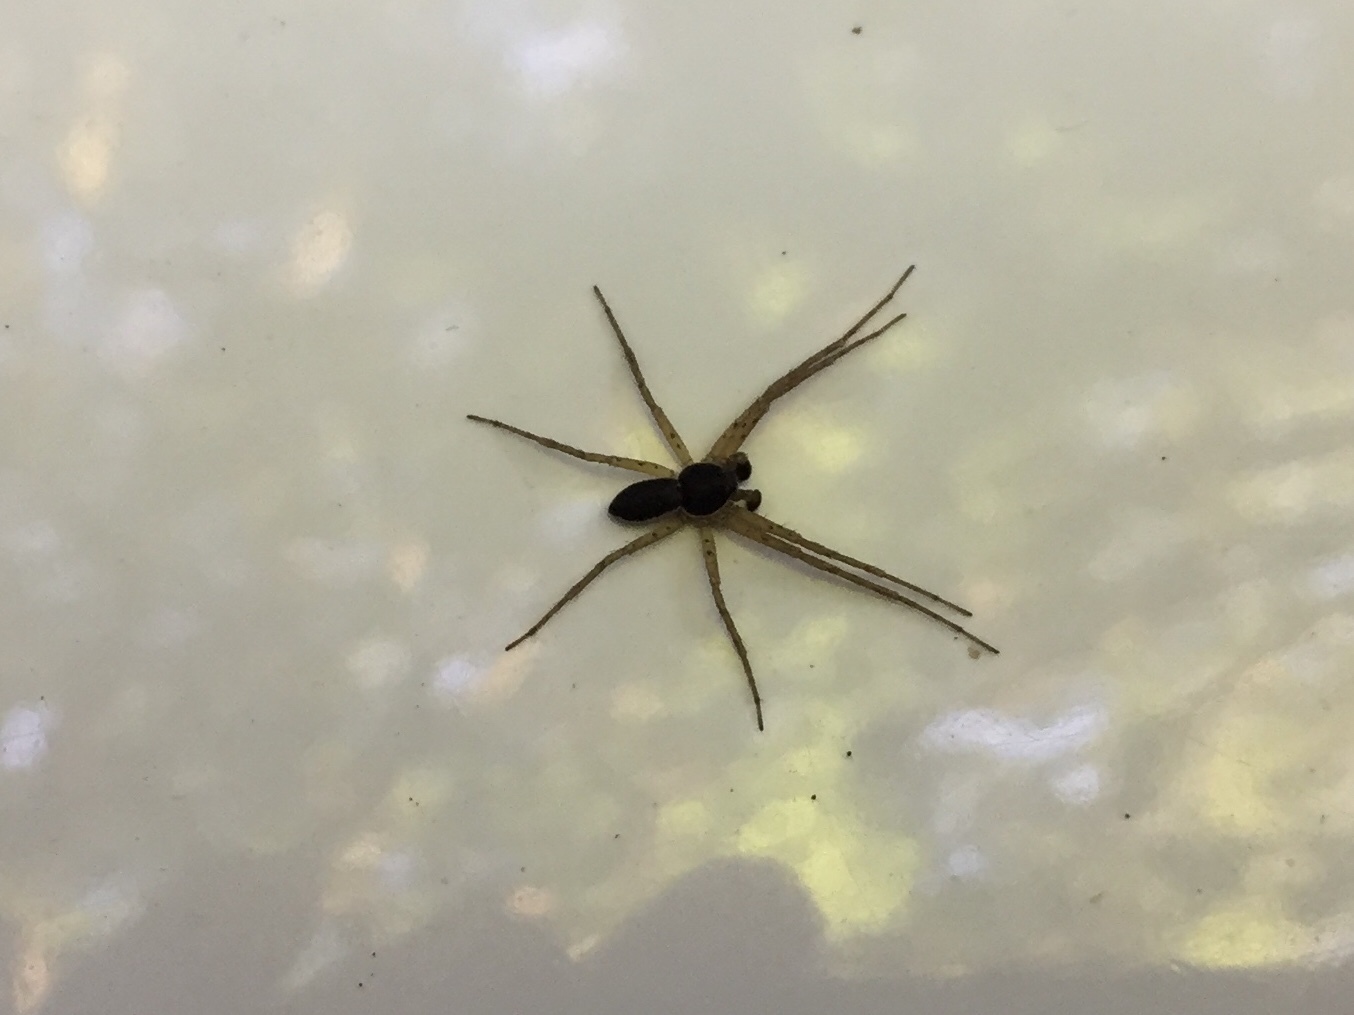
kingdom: Animalia
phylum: Arthropoda
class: Arachnida
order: Araneae
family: Philodromidae
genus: Philodromus
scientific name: Philodromus dispar
